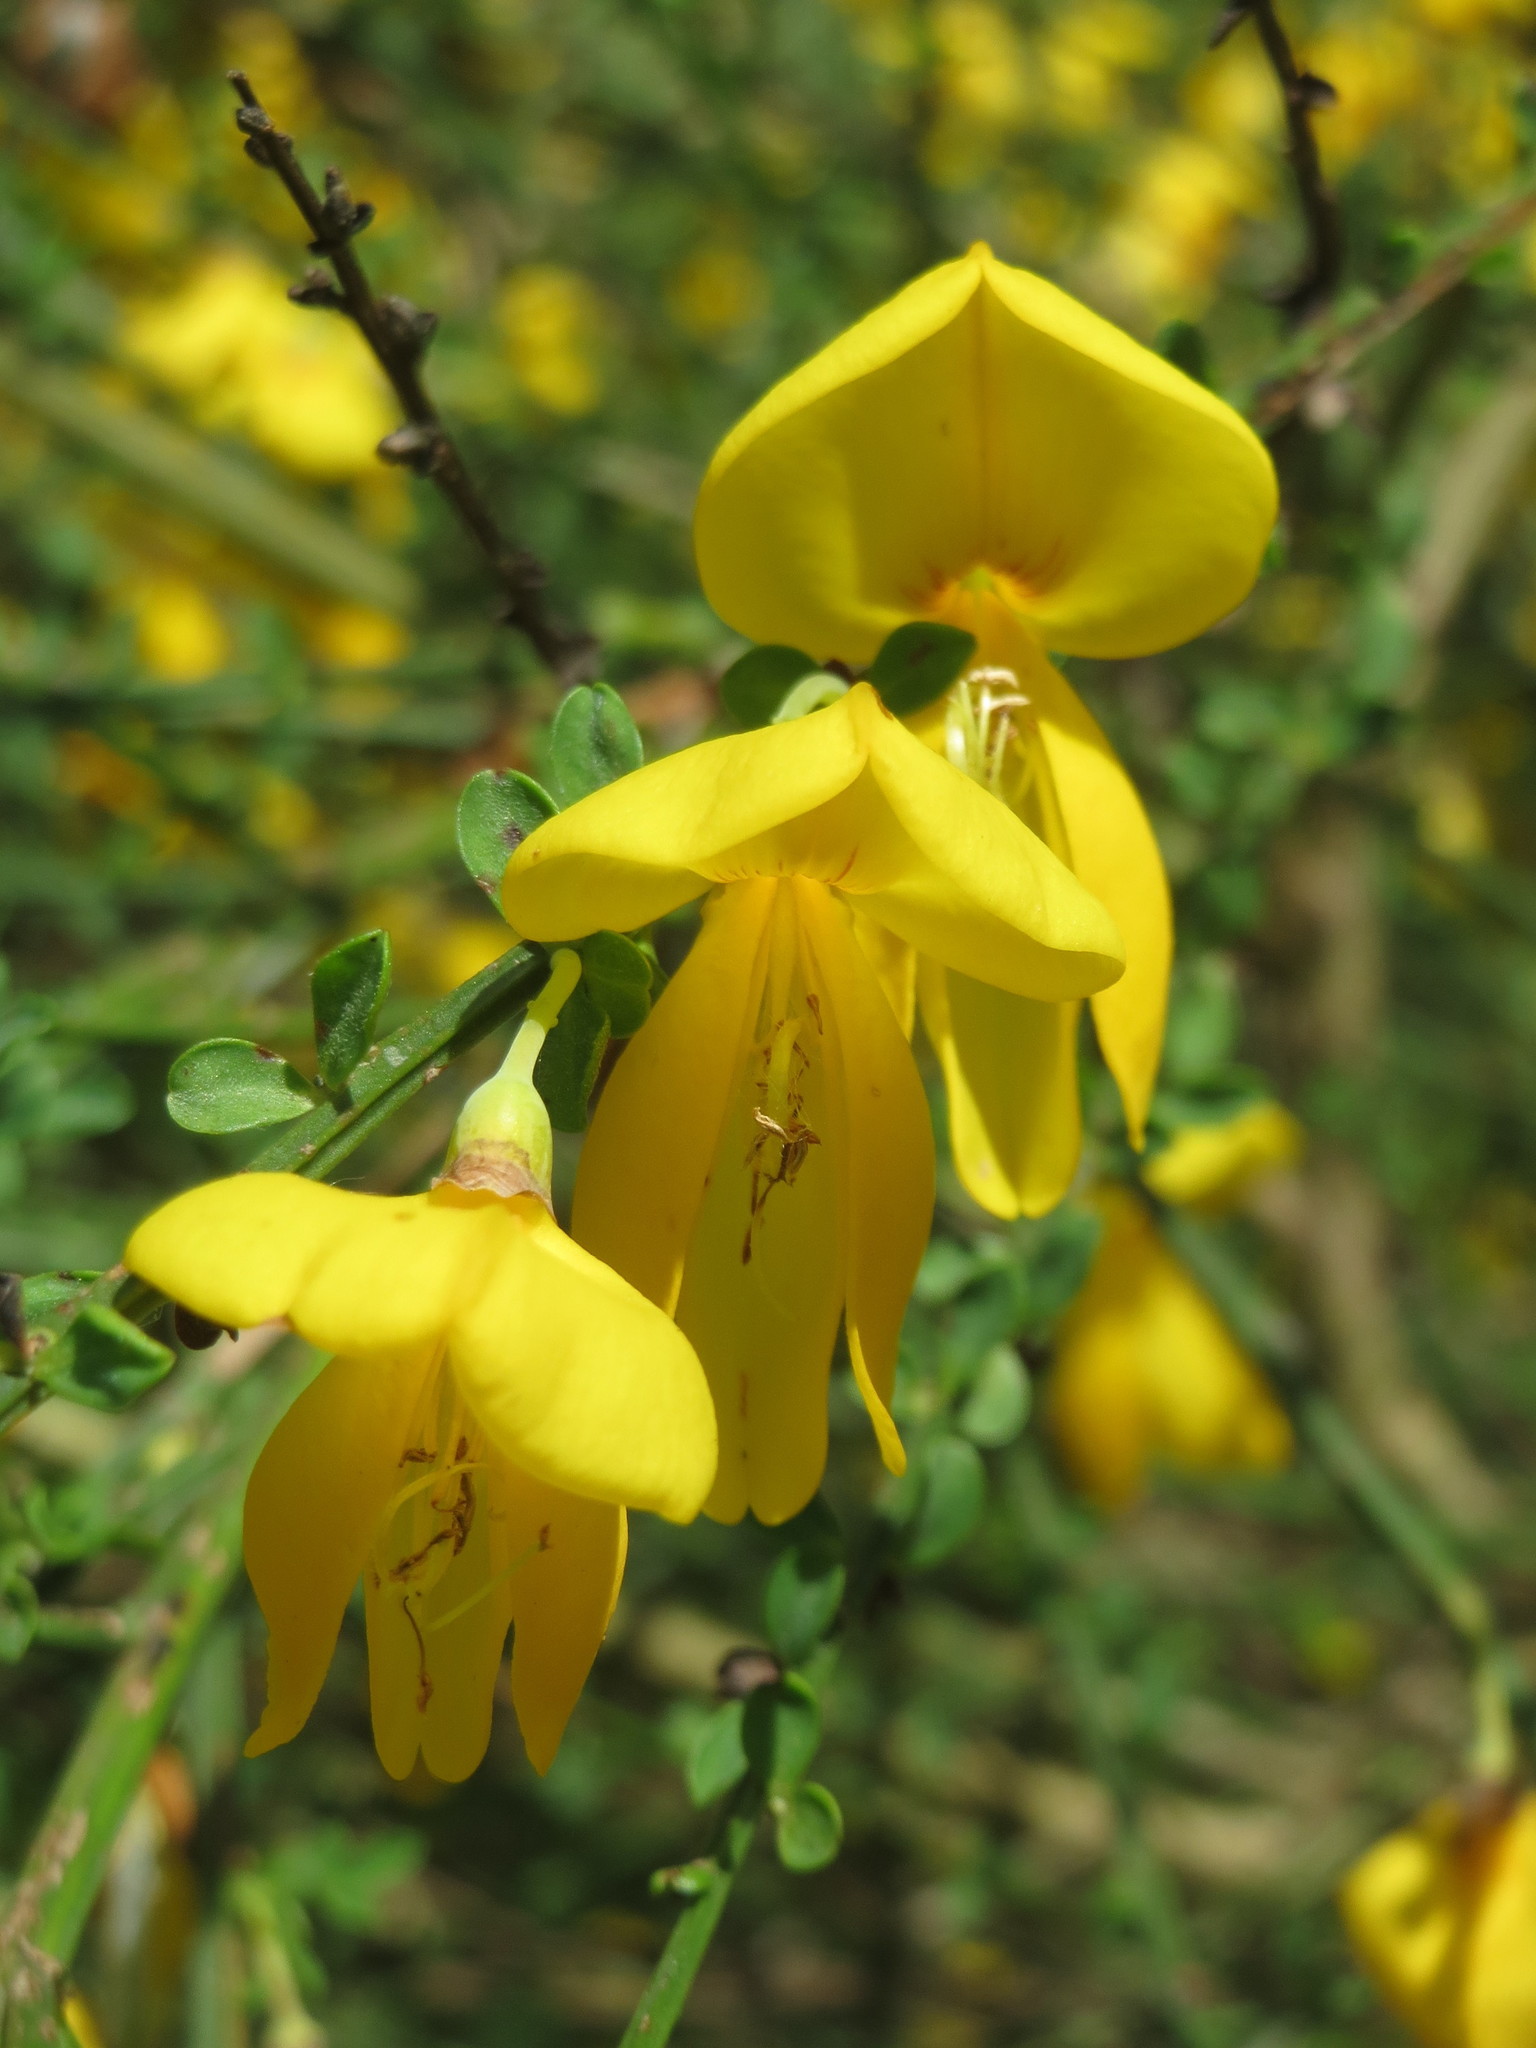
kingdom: Plantae
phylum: Tracheophyta
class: Magnoliopsida
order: Fabales
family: Fabaceae
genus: Cytisus
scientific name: Cytisus scoparius
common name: Scotch broom
